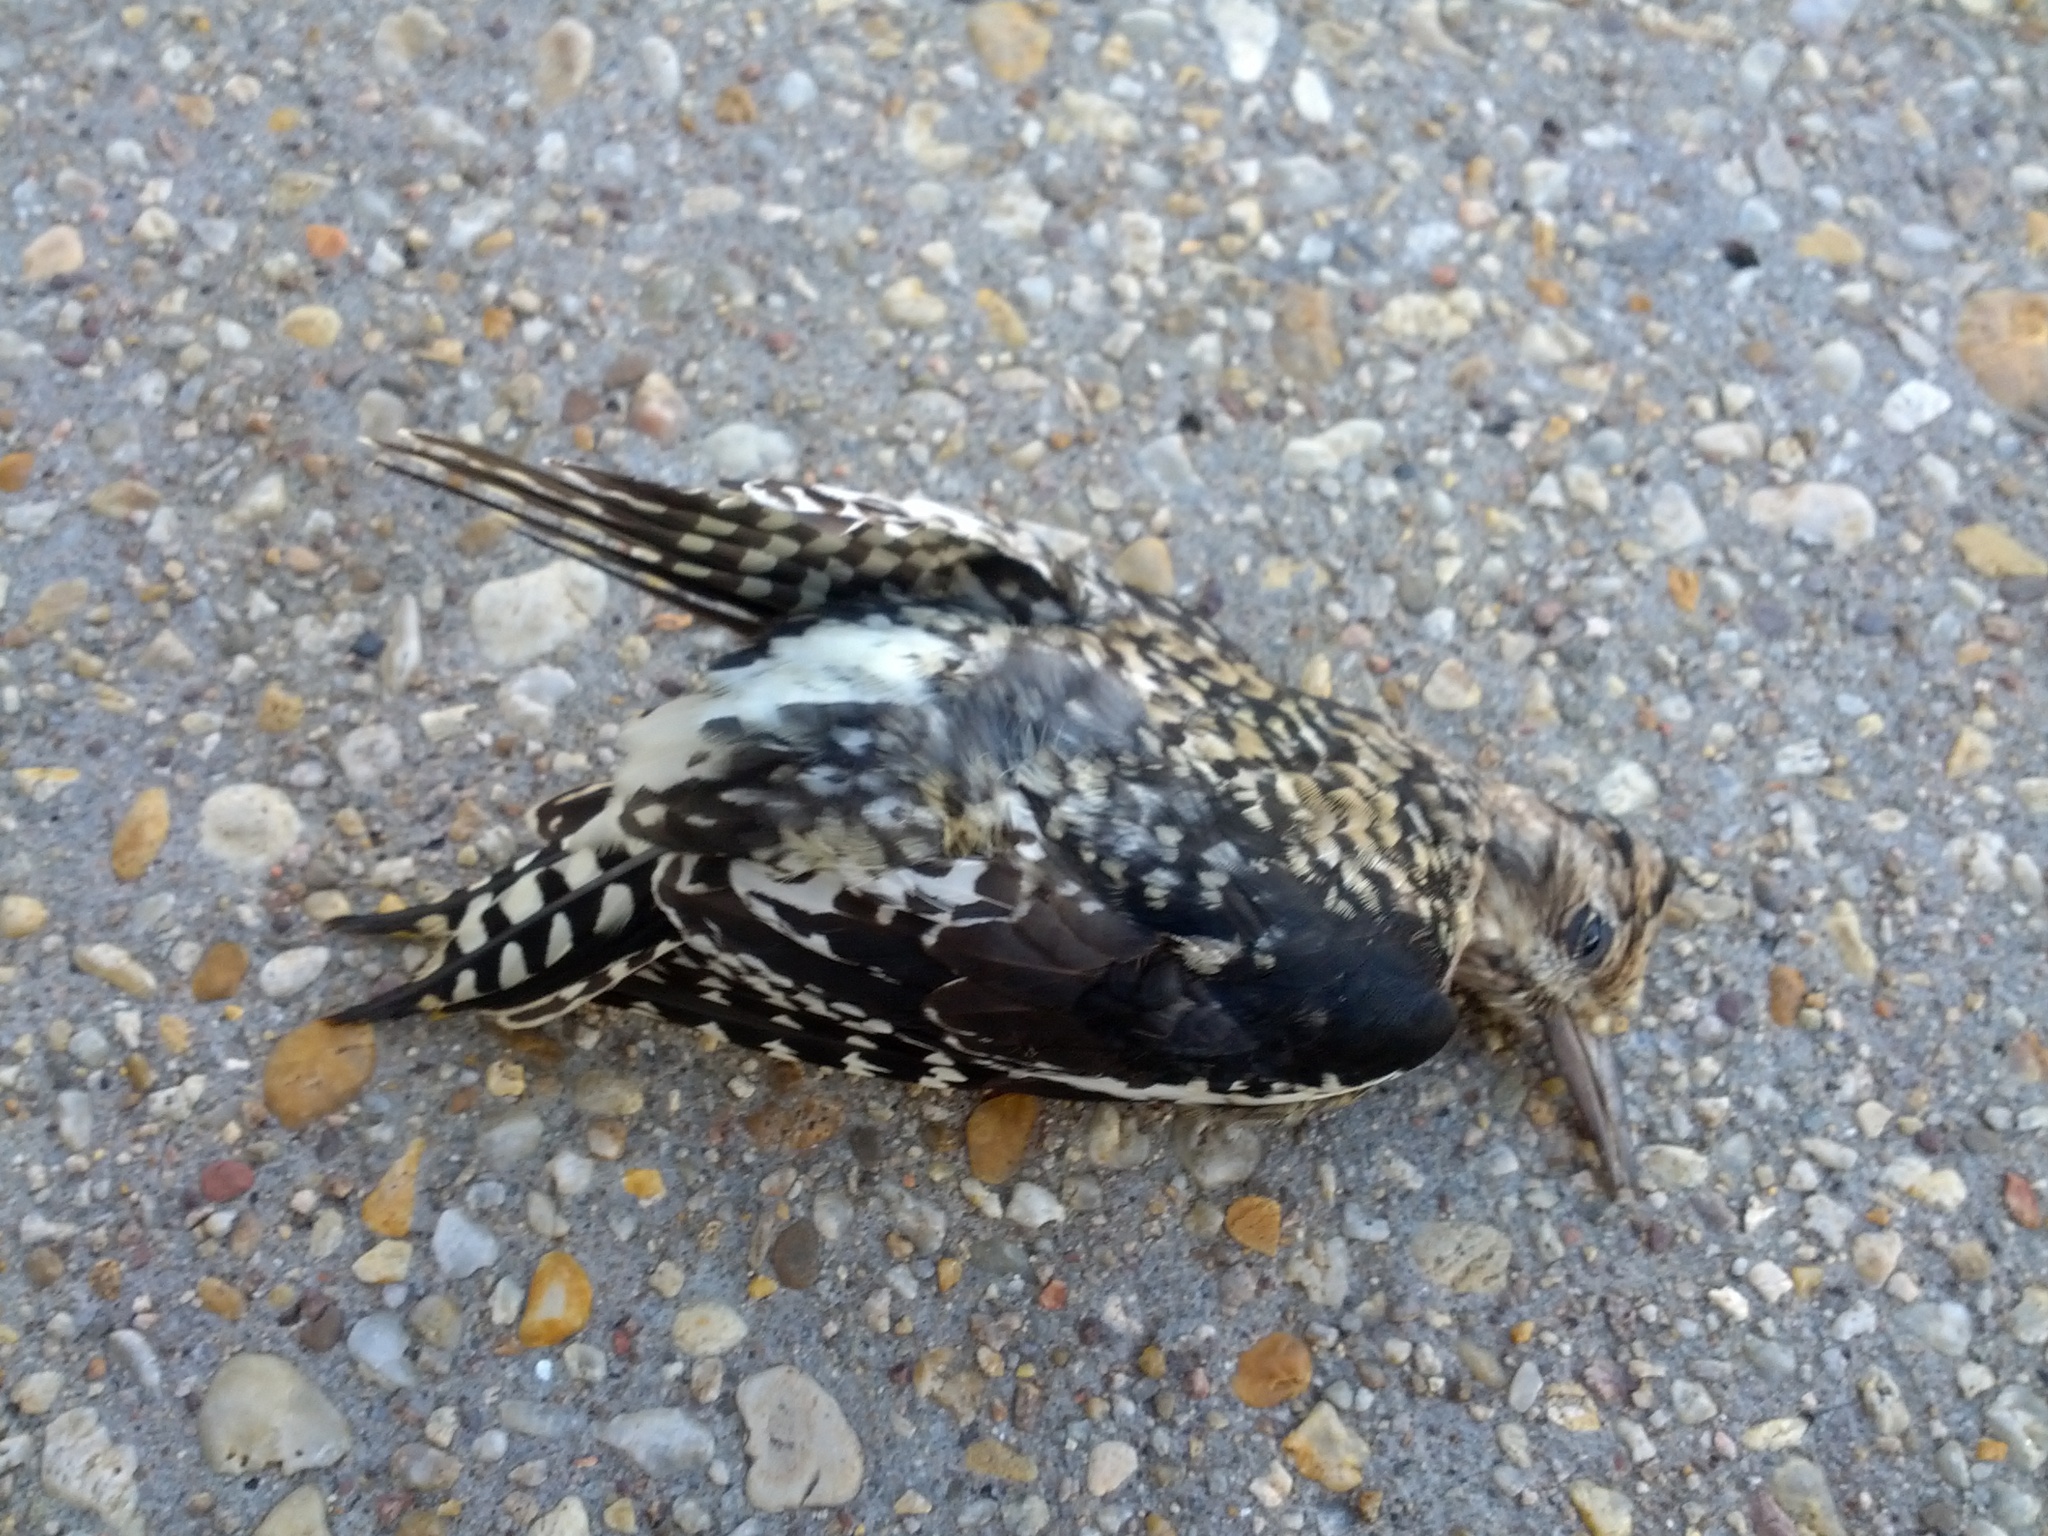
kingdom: Animalia
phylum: Chordata
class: Aves
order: Piciformes
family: Picidae
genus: Sphyrapicus
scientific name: Sphyrapicus varius
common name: Yellow-bellied sapsucker
